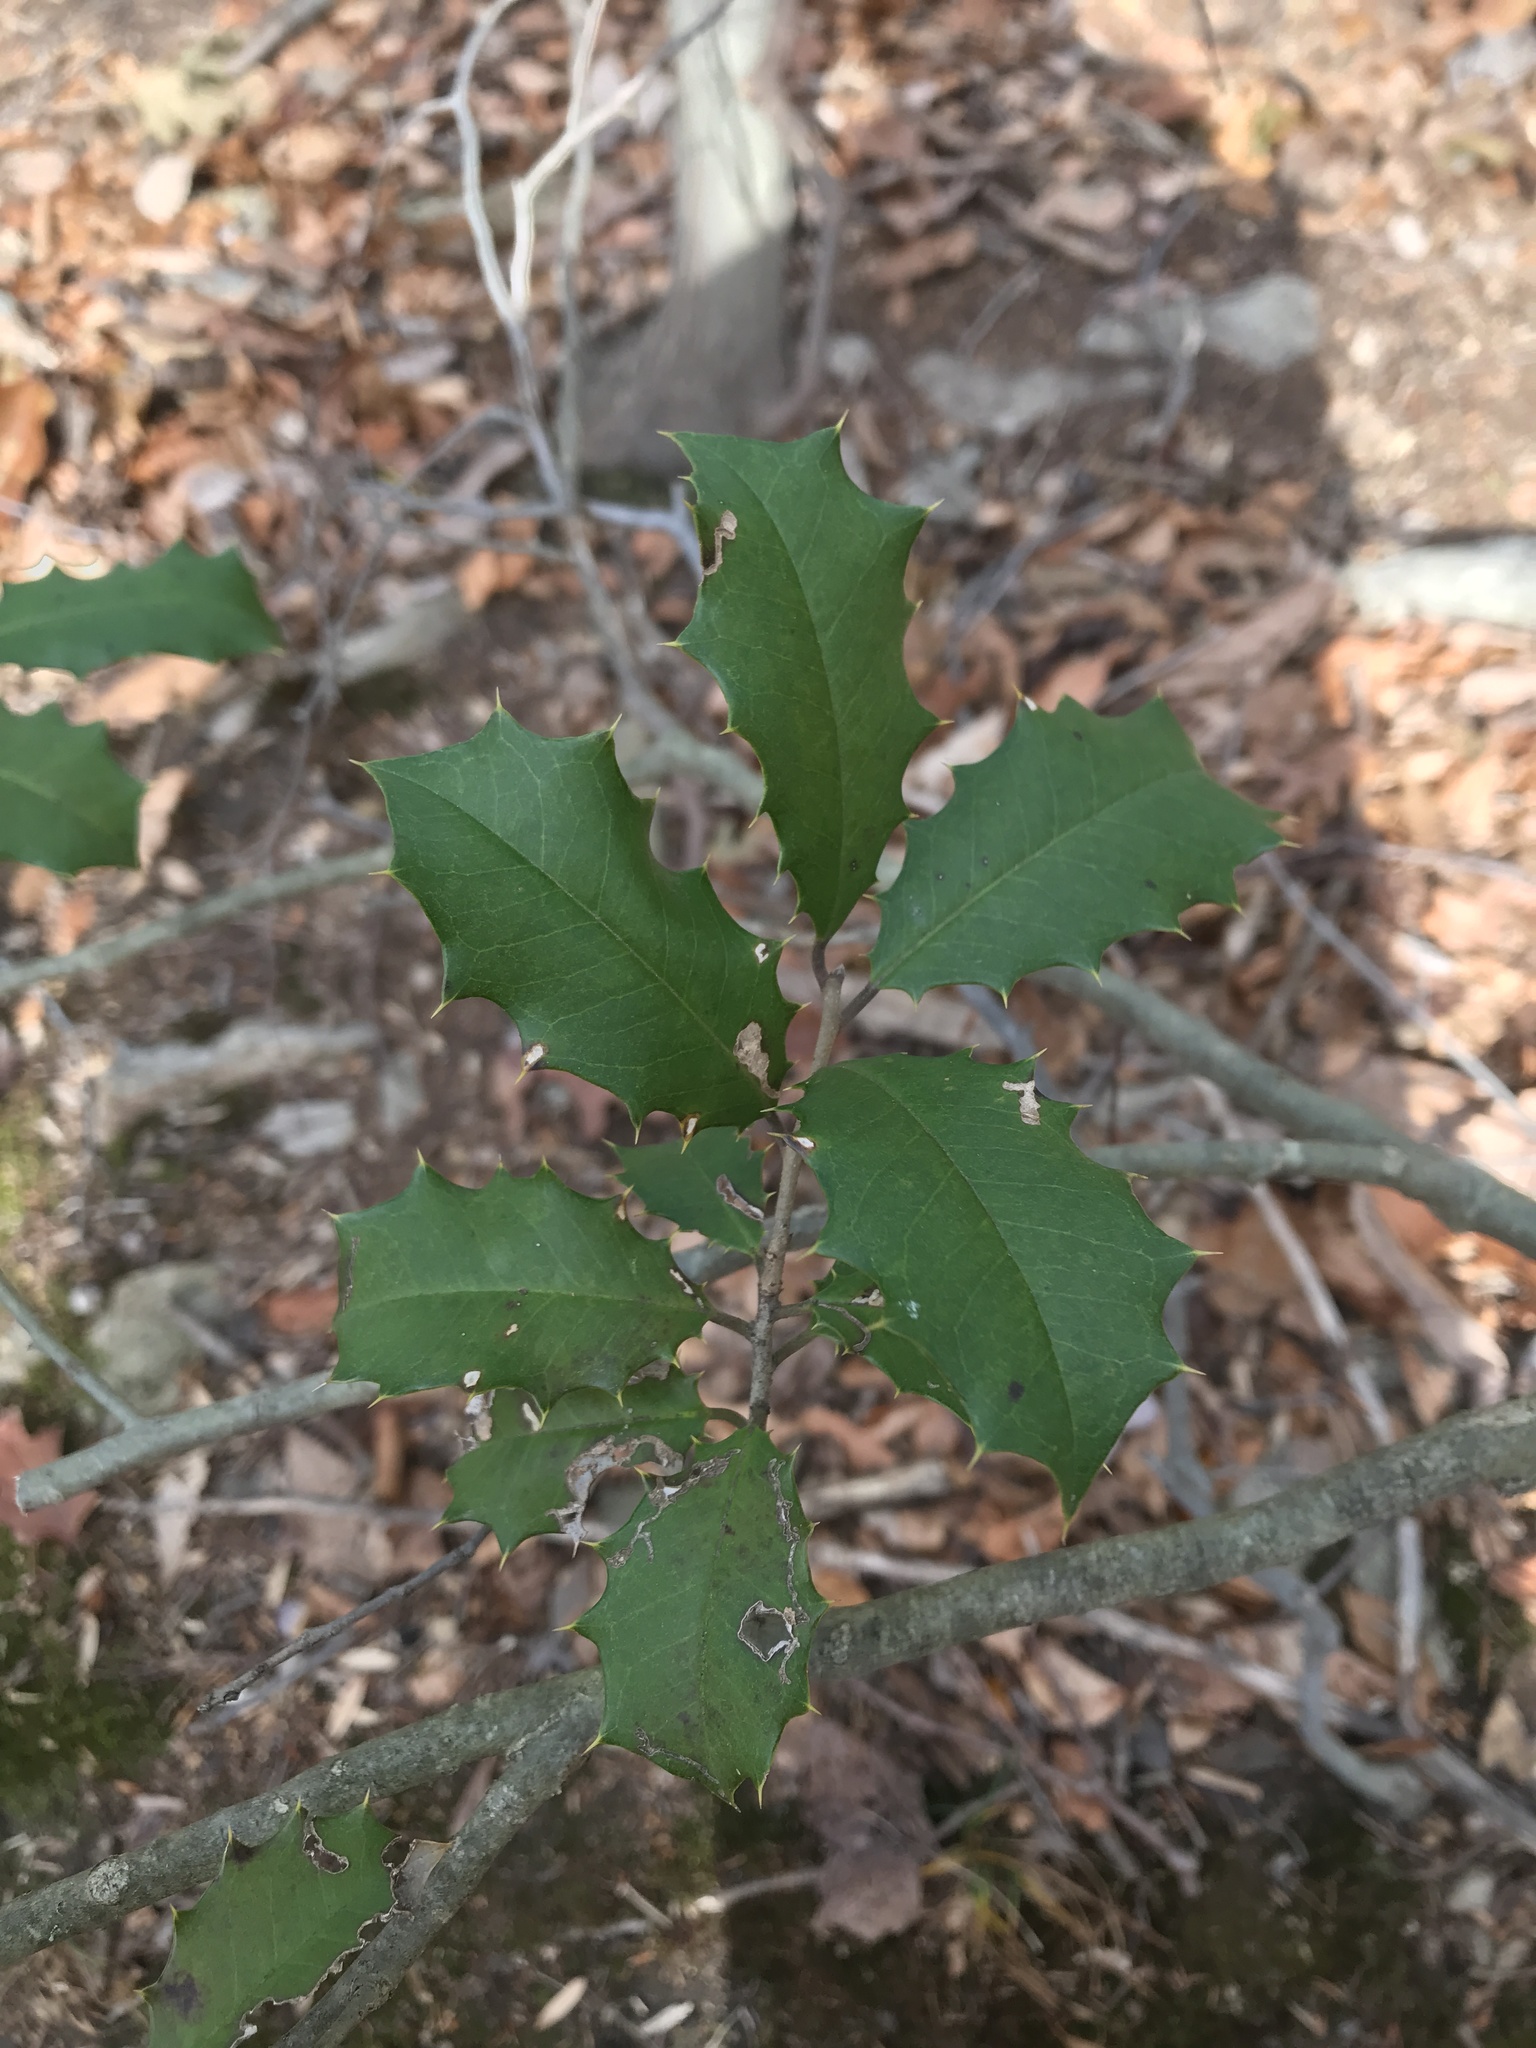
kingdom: Plantae
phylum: Tracheophyta
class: Magnoliopsida
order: Aquifoliales
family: Aquifoliaceae
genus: Ilex
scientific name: Ilex opaca
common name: American holly
